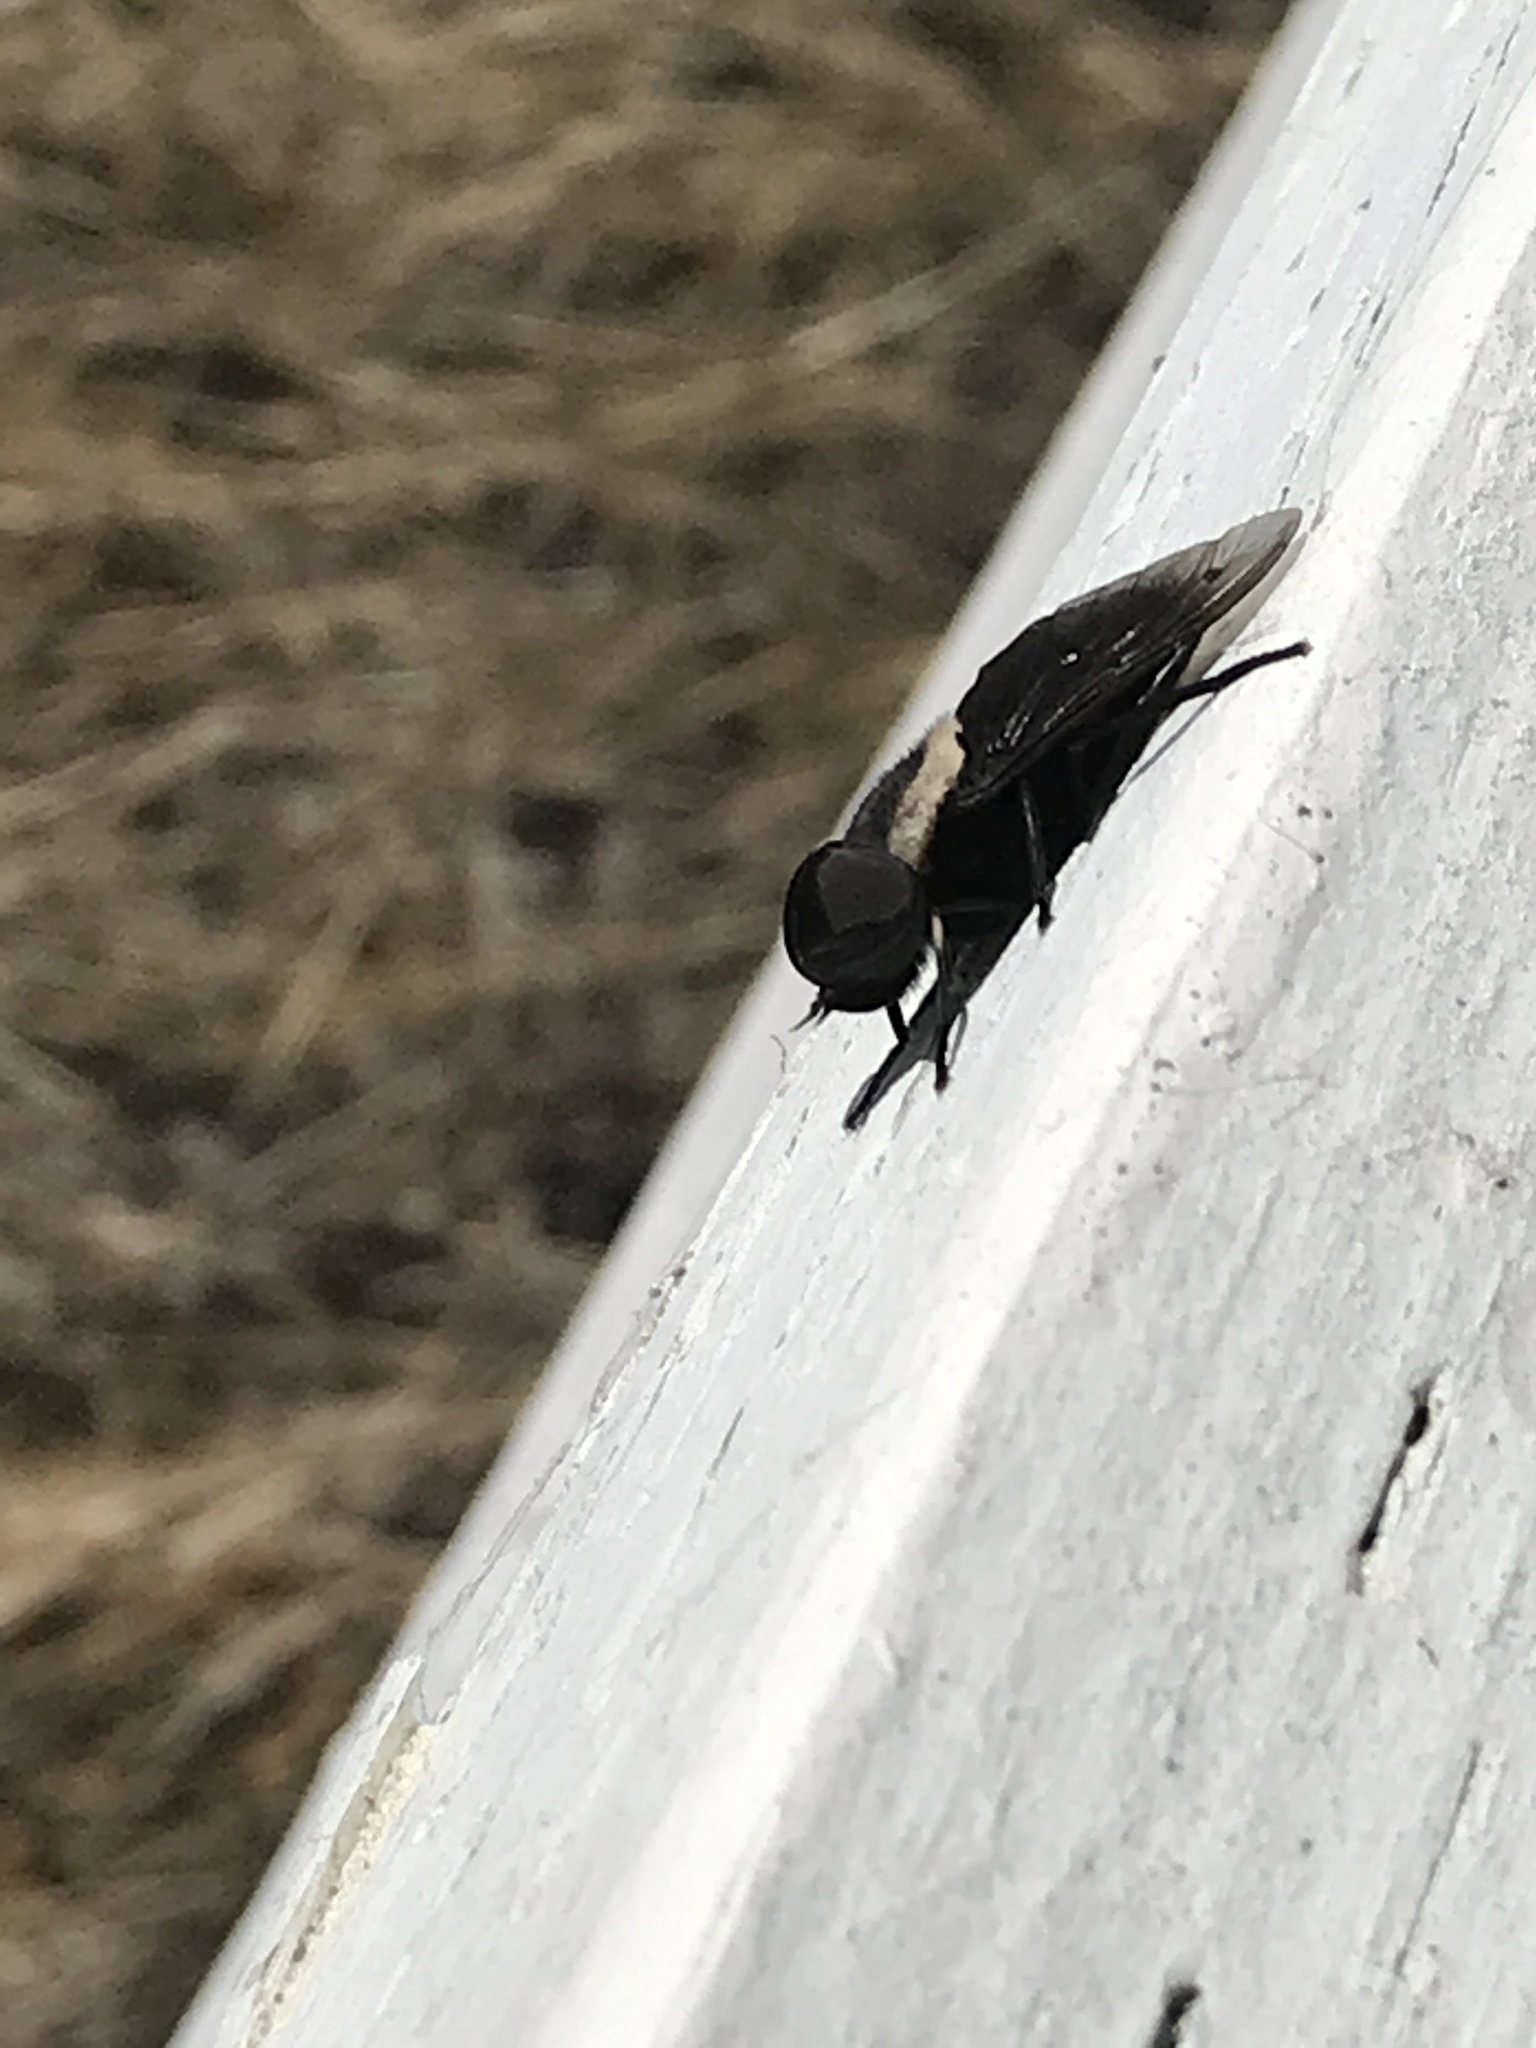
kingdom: Animalia
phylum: Arthropoda
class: Insecta
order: Diptera
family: Tabanidae
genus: Tabanus
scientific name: Tabanus punctifer
